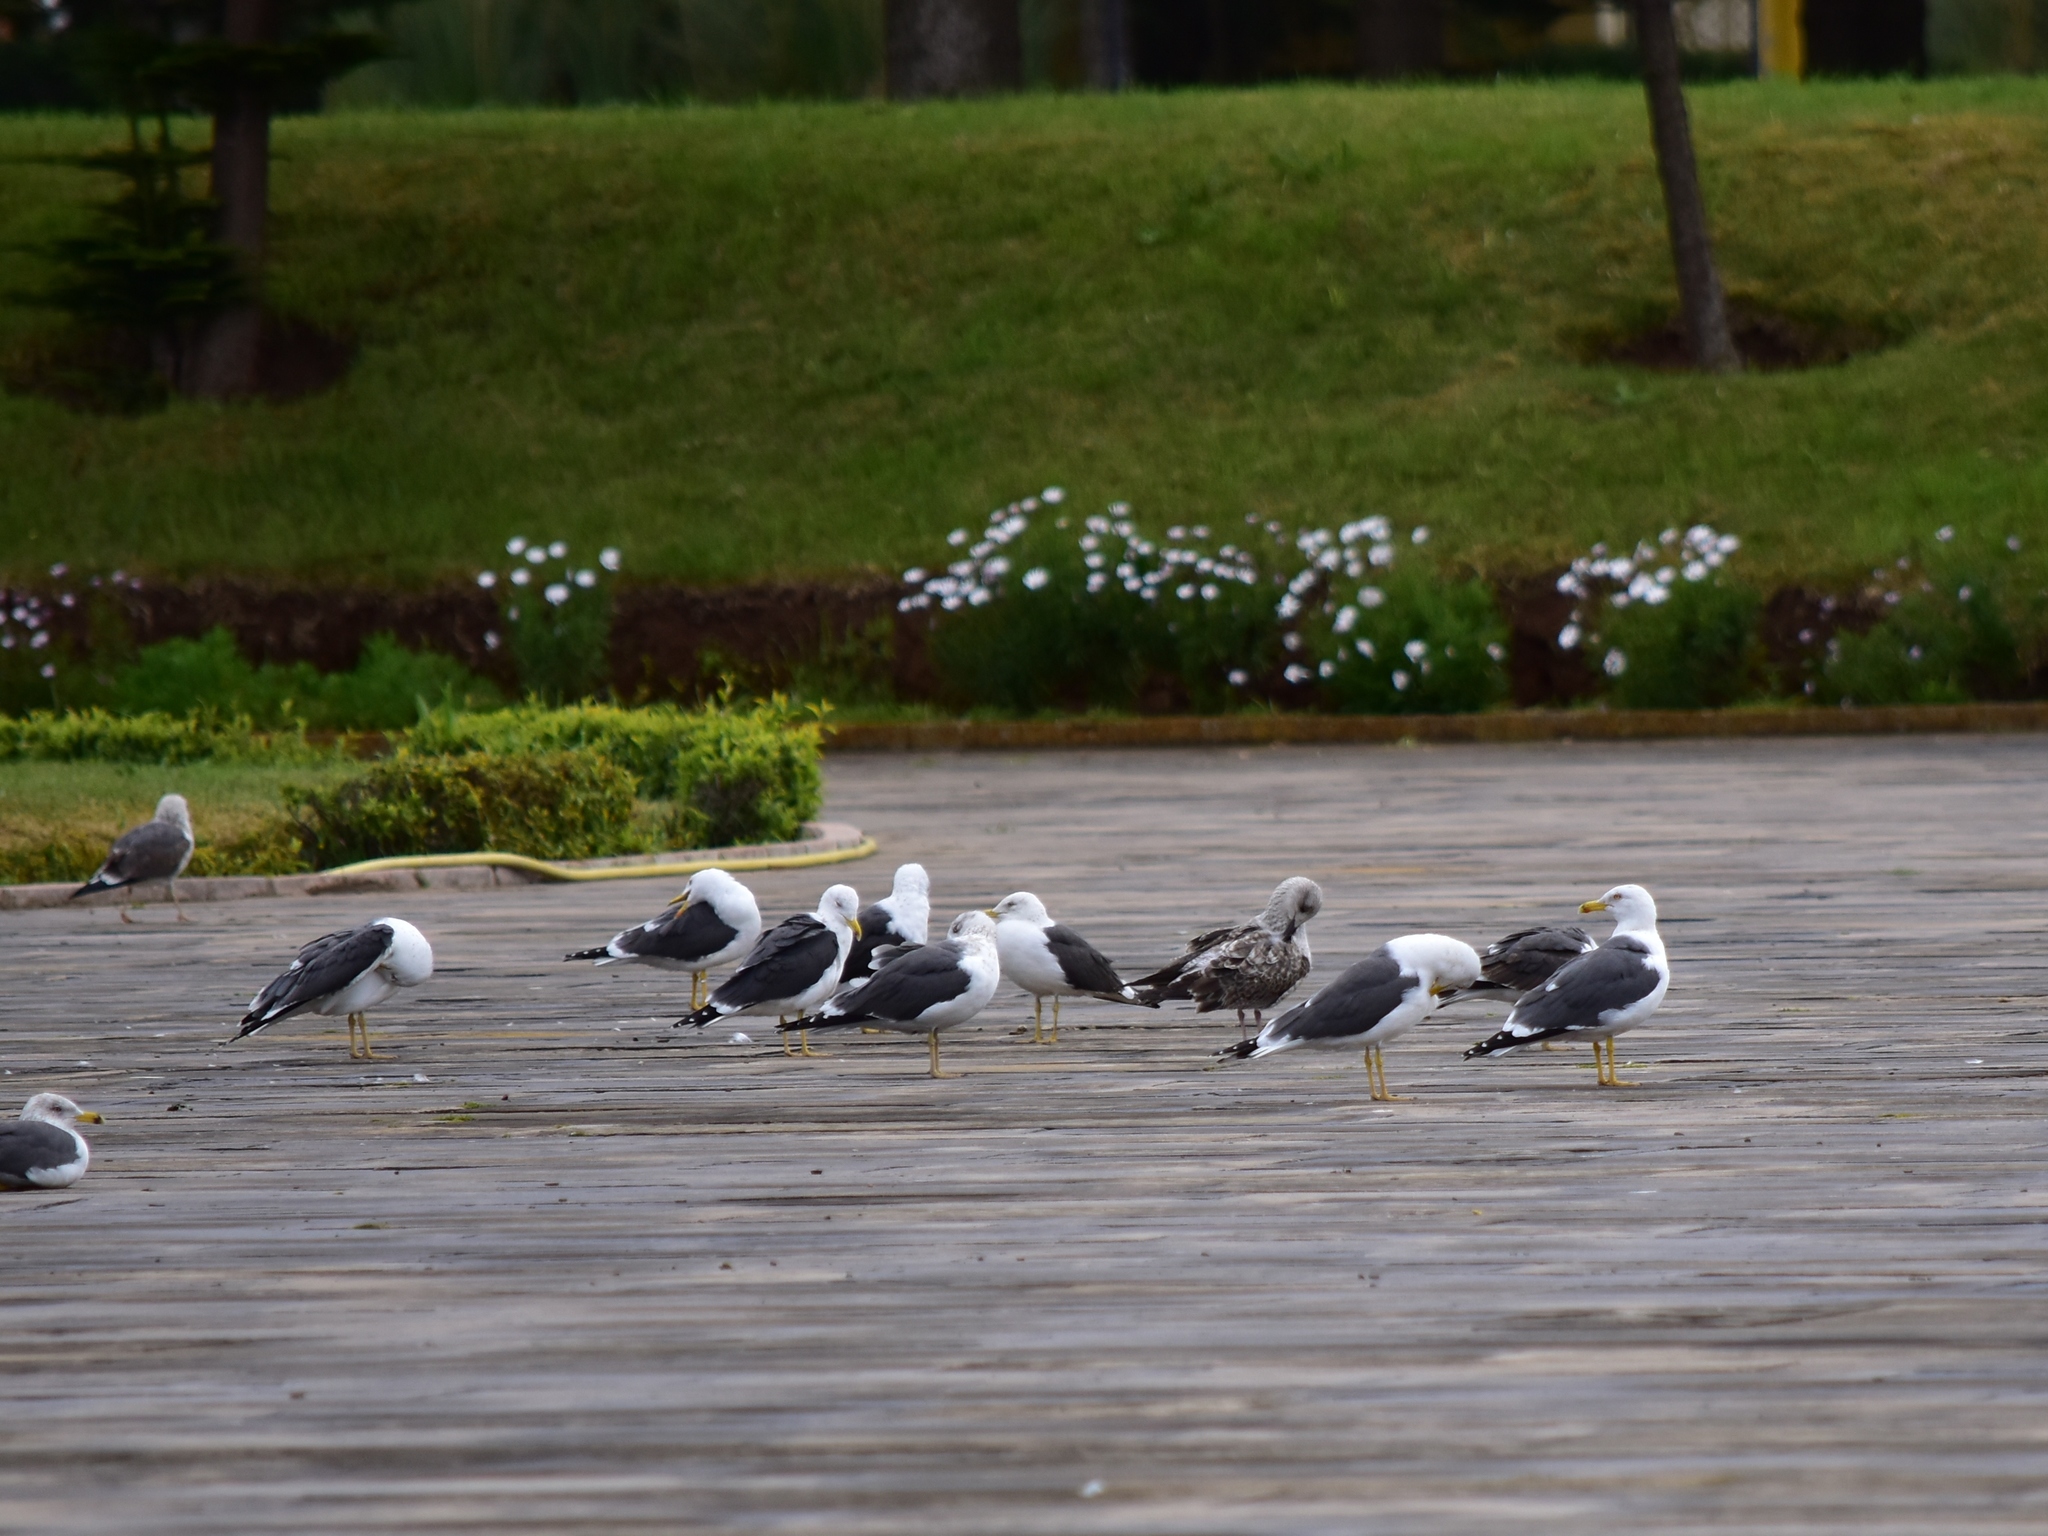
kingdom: Animalia
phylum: Chordata
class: Aves
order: Charadriiformes
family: Laridae
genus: Larus
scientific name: Larus fuscus
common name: Lesser black-backed gull
